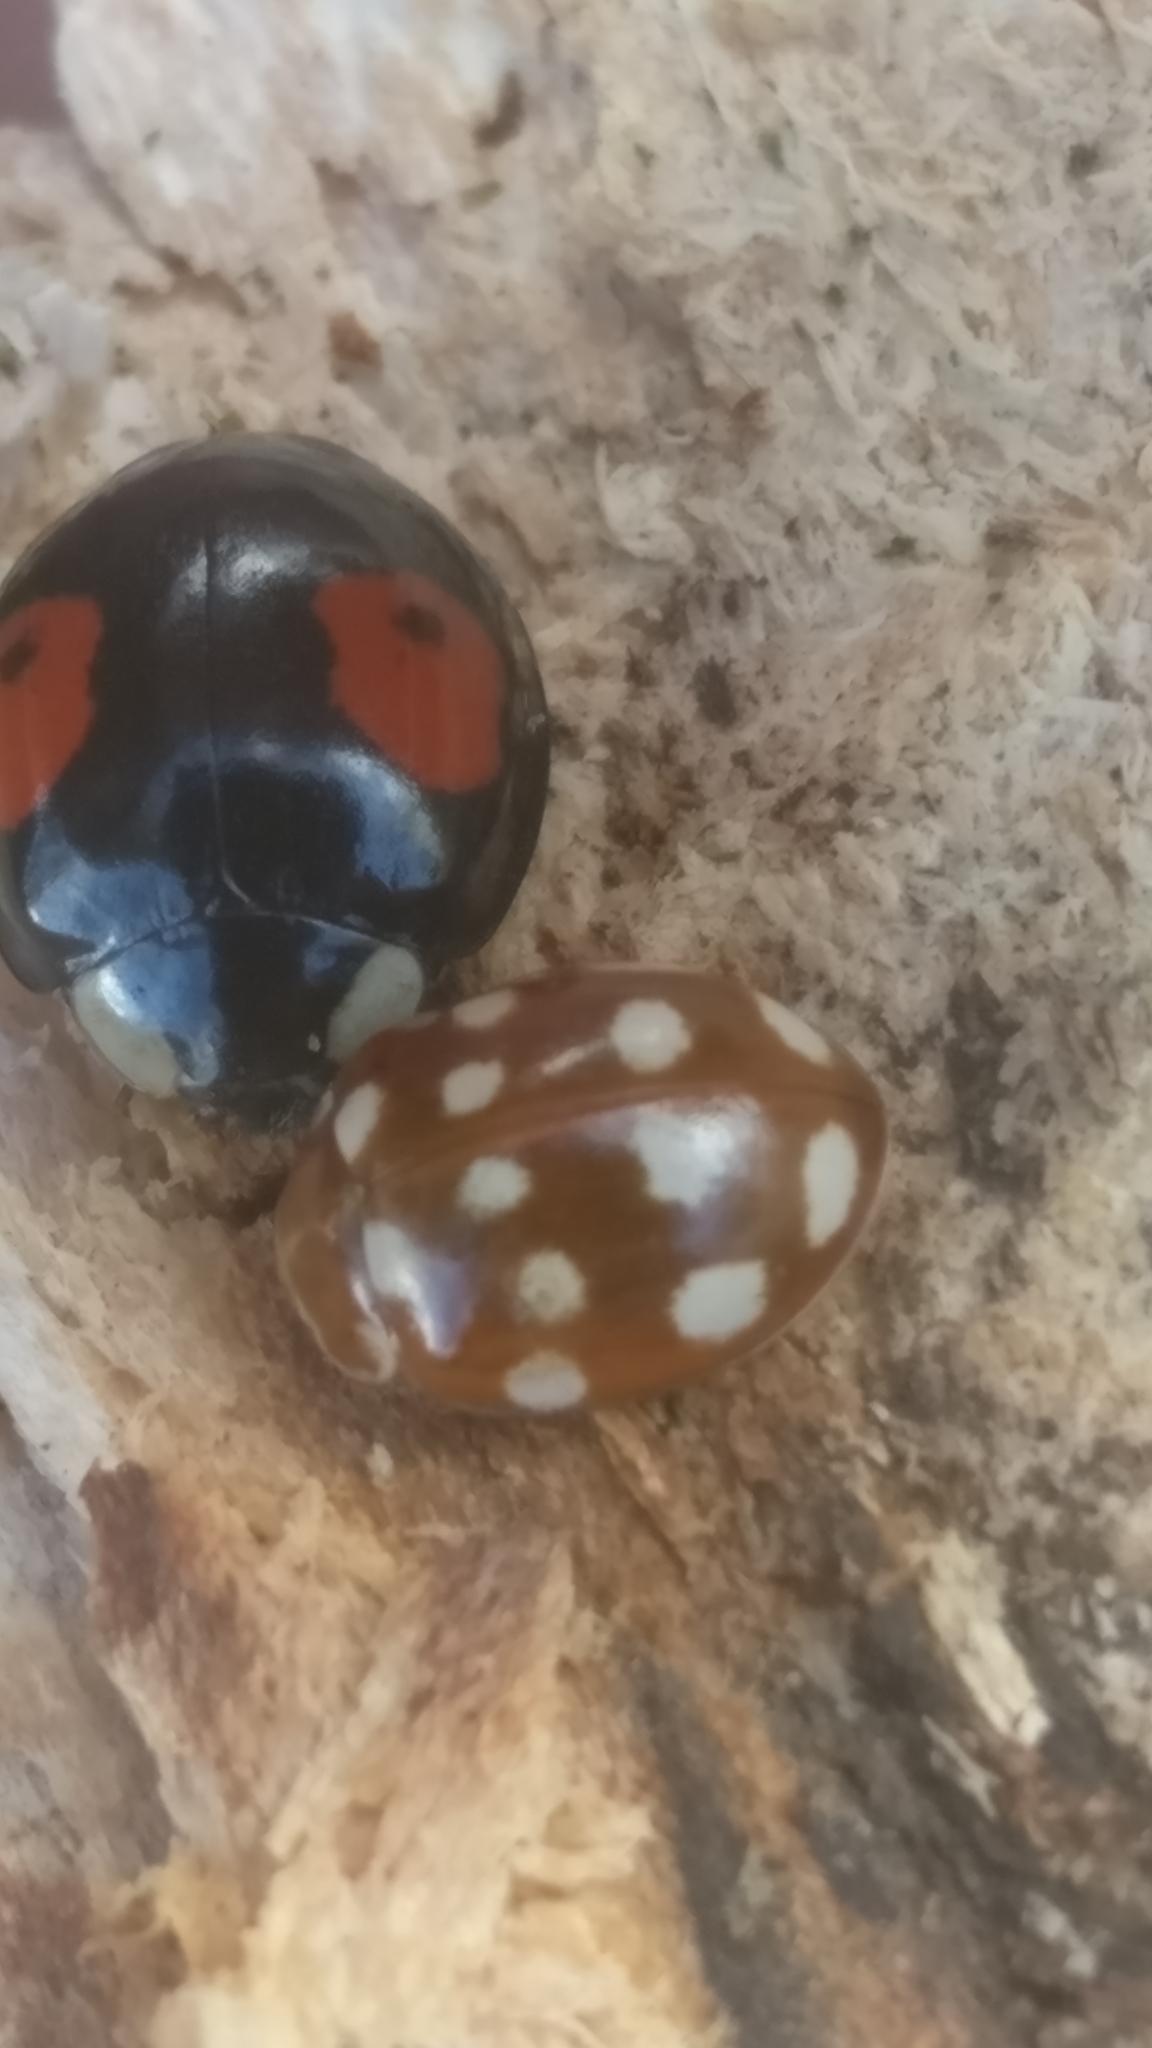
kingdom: Animalia
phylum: Arthropoda
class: Insecta
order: Coleoptera
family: Coccinellidae
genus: Harmonia
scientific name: Harmonia axyridis
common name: Harlequin ladybird
